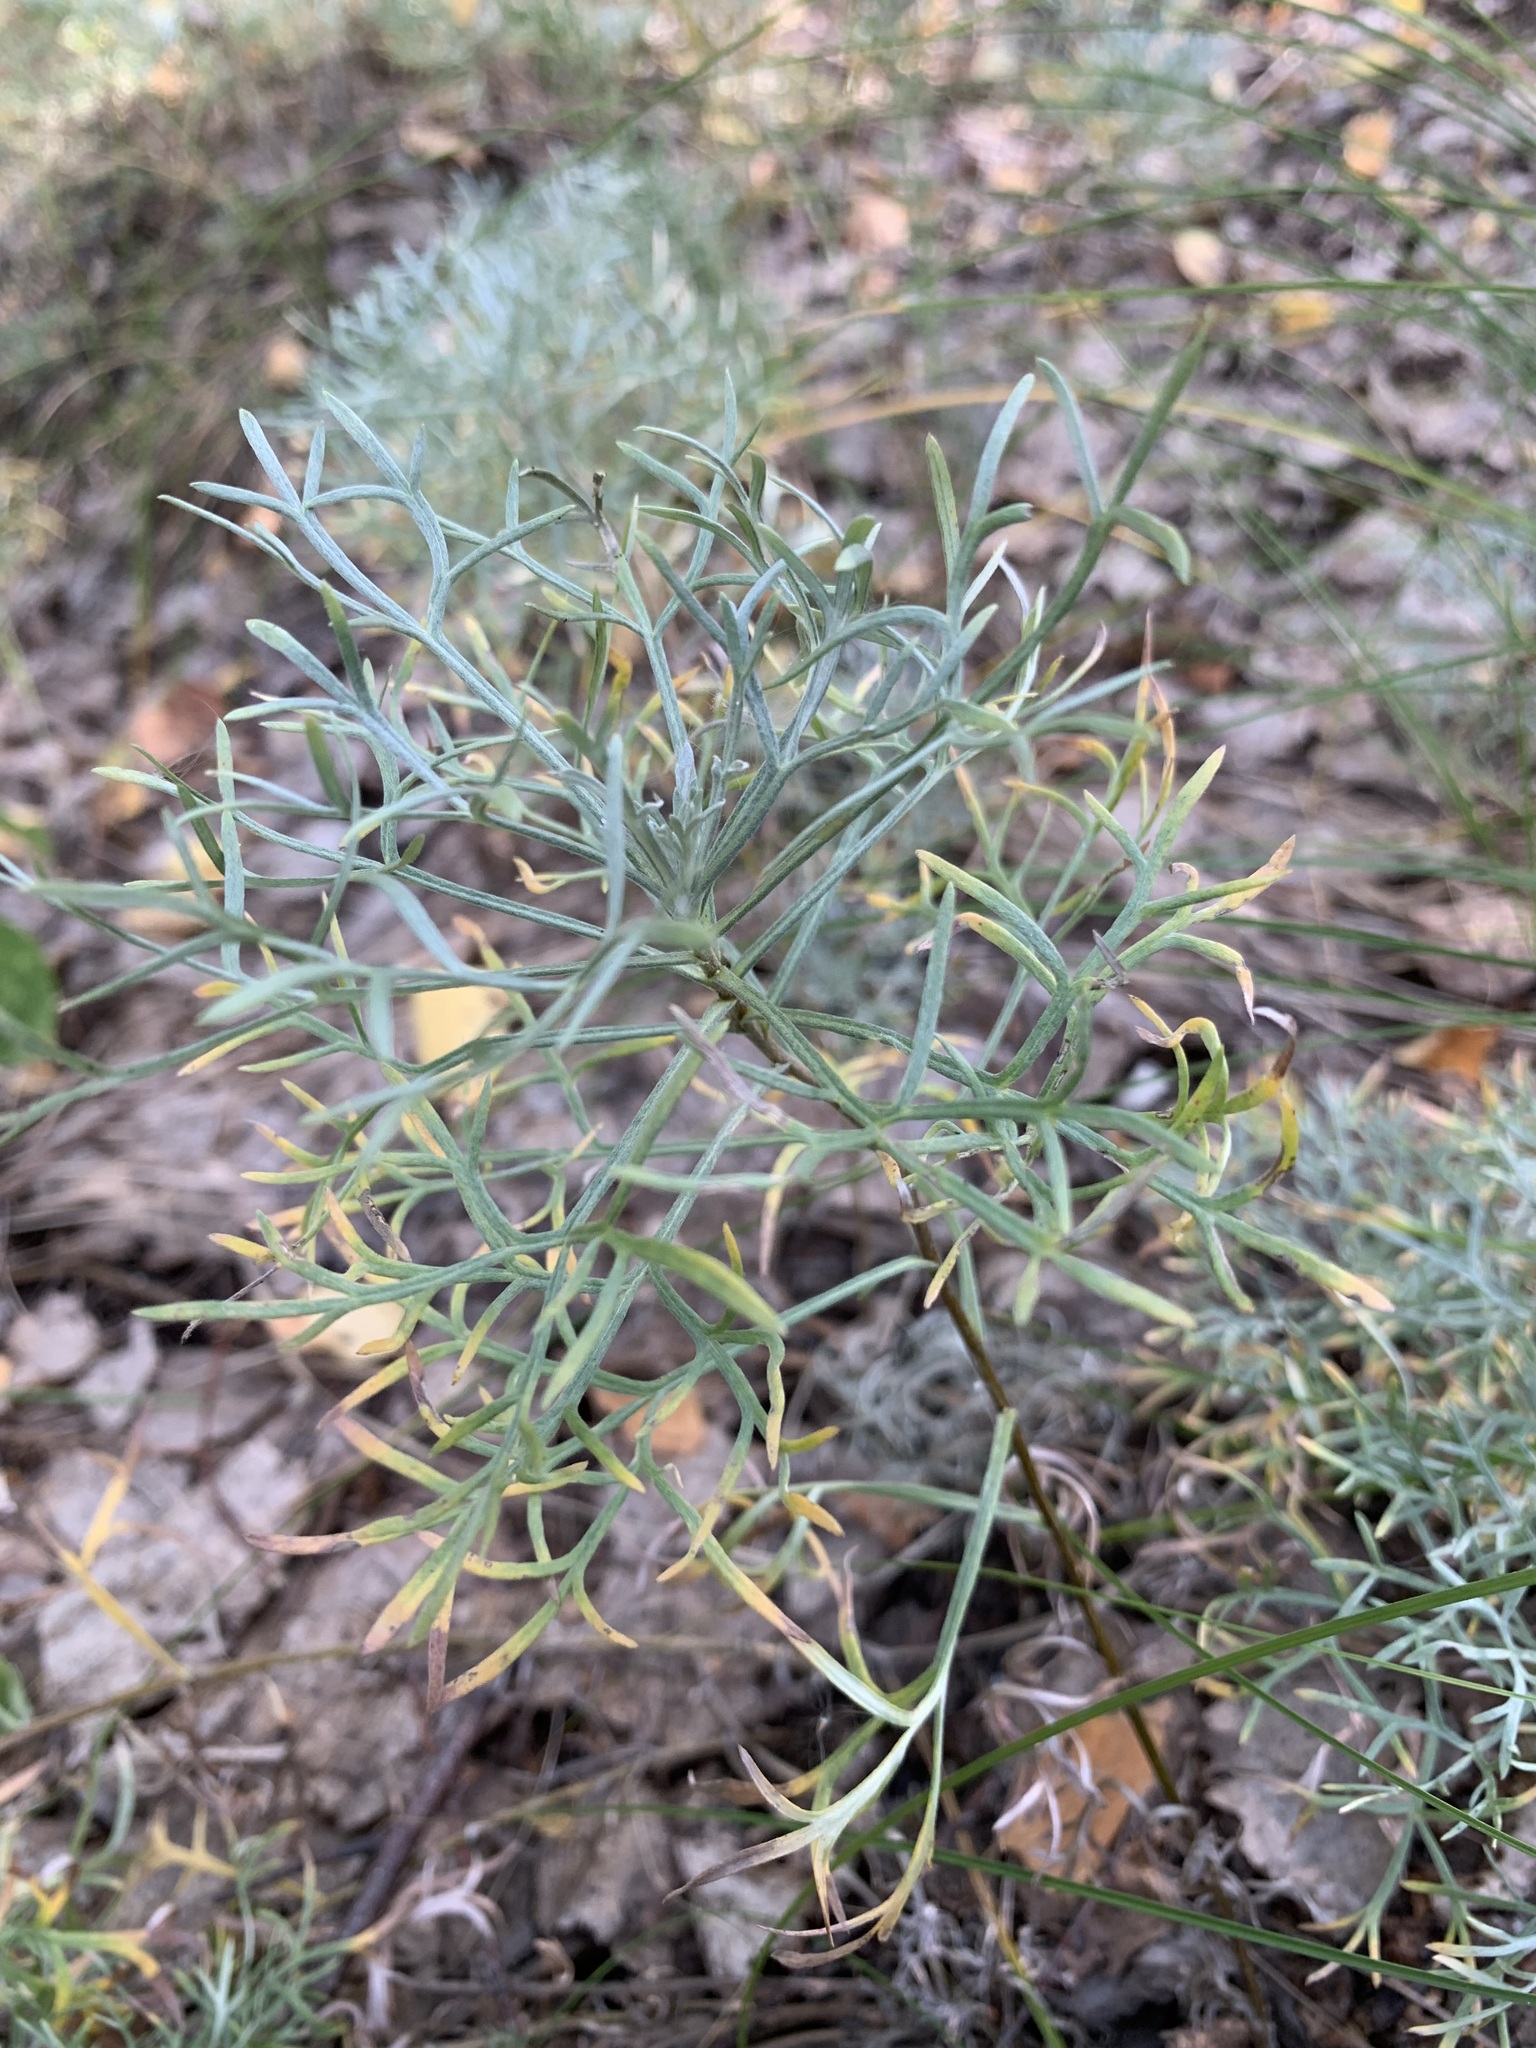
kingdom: Plantae
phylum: Tracheophyta
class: Magnoliopsida
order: Asterales
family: Asteraceae
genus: Artemisia
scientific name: Artemisia sericea
